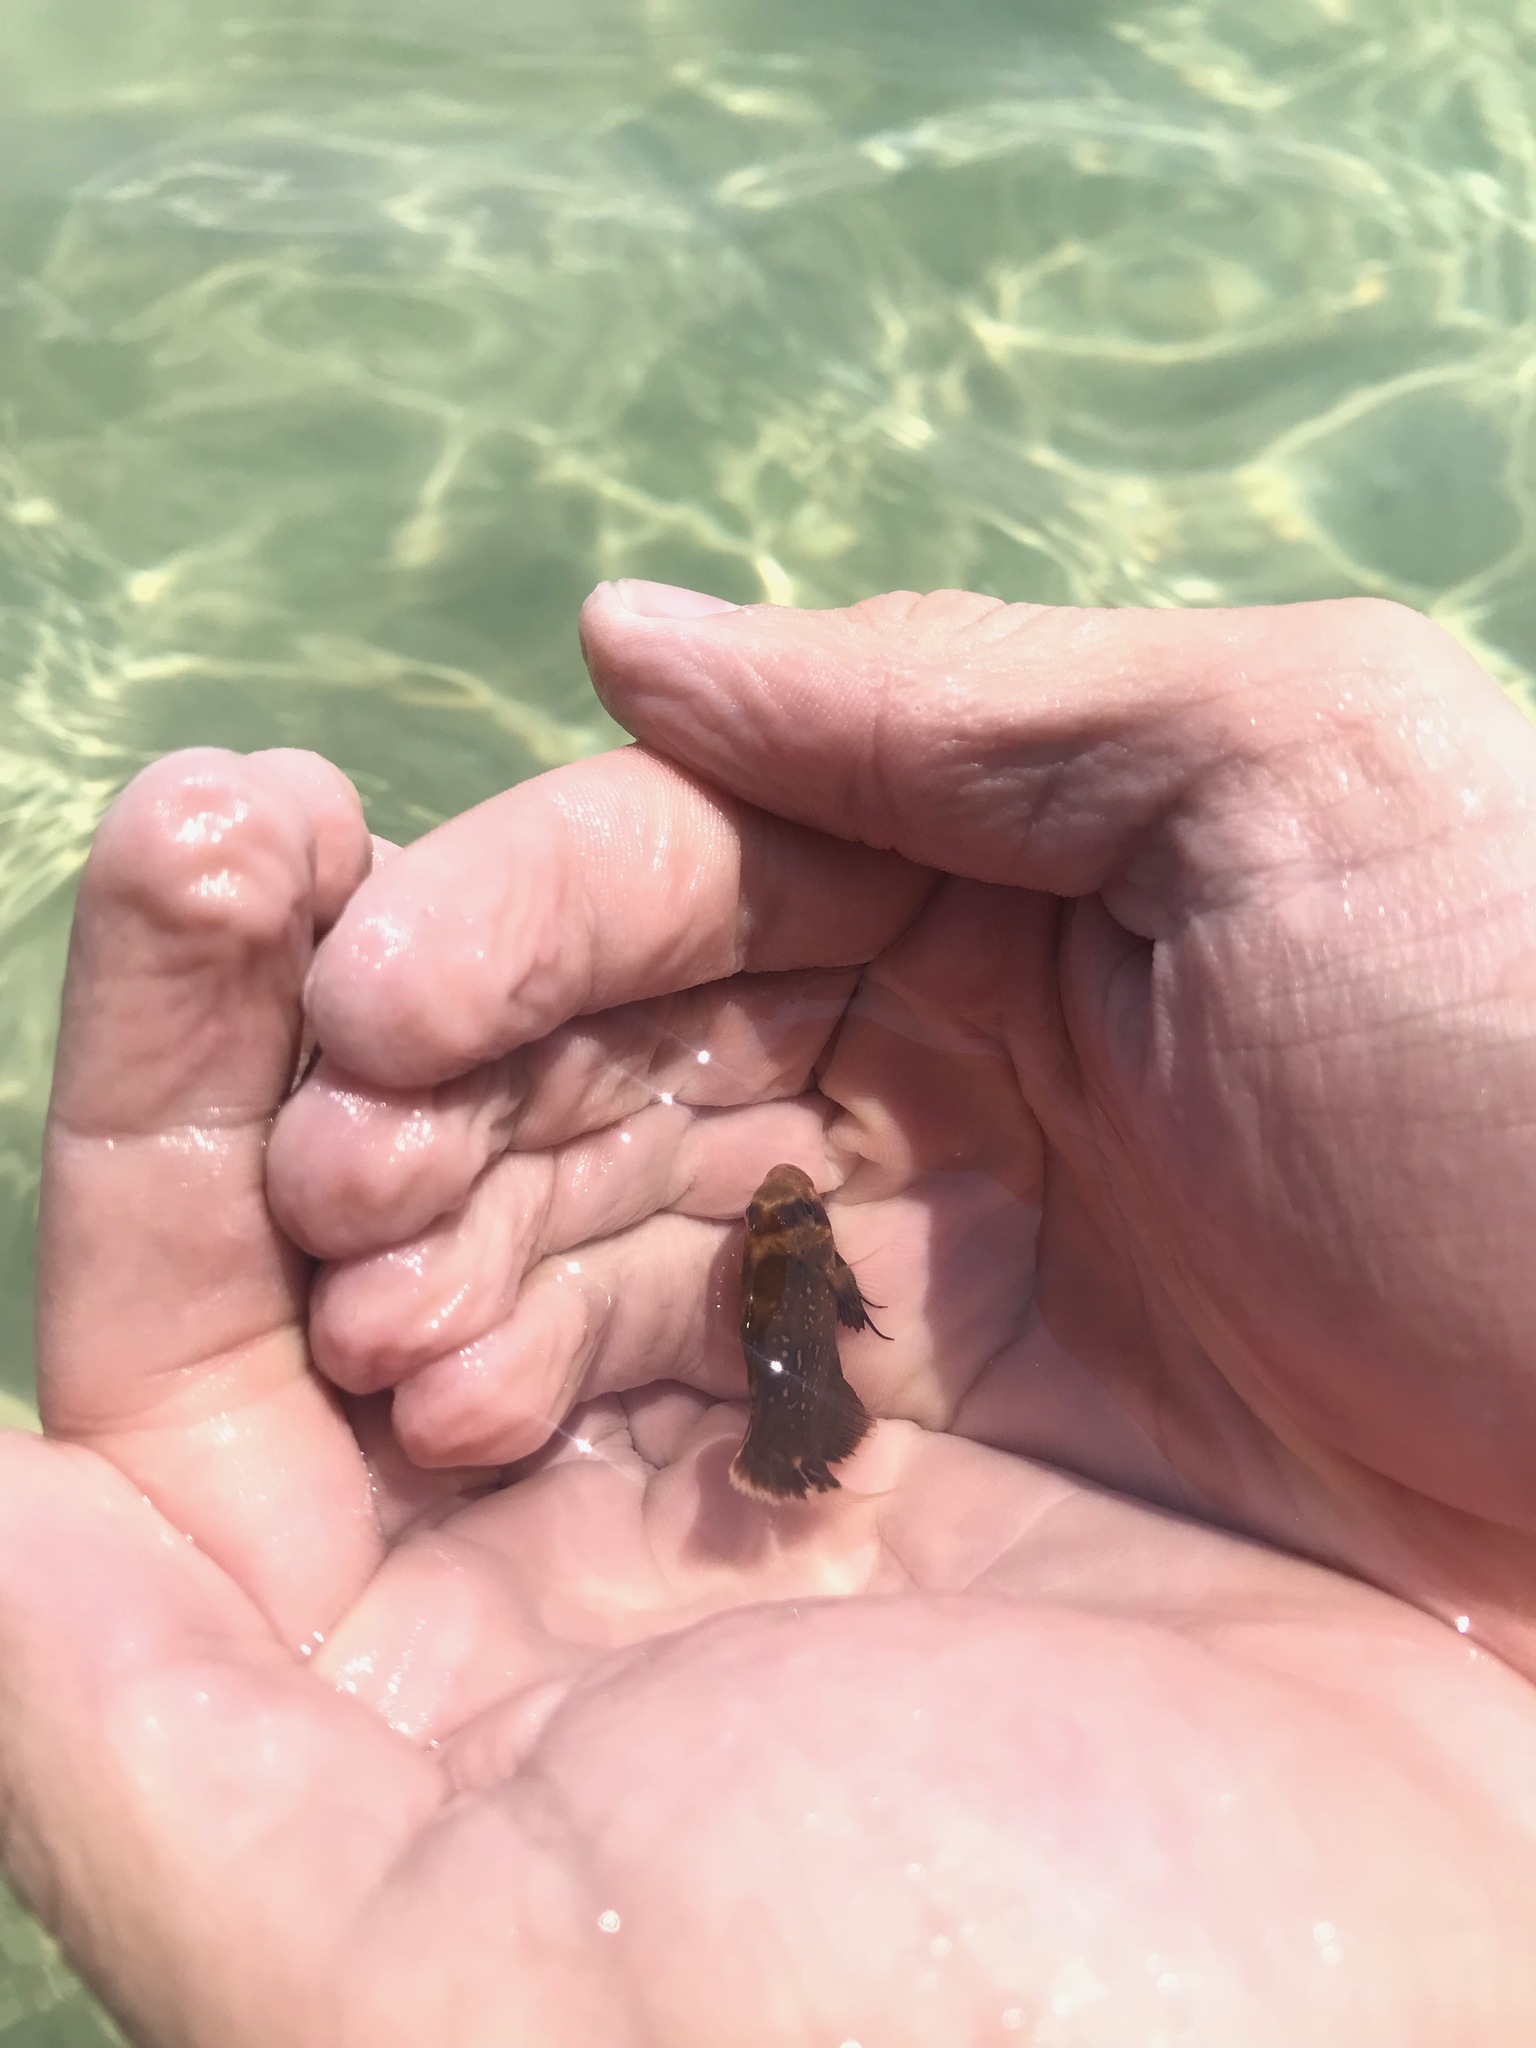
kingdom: Animalia
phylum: Arthropoda
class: Insecta
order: Lepidoptera
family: Erebidae
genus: Selenisa
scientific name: Selenisa sueroides
